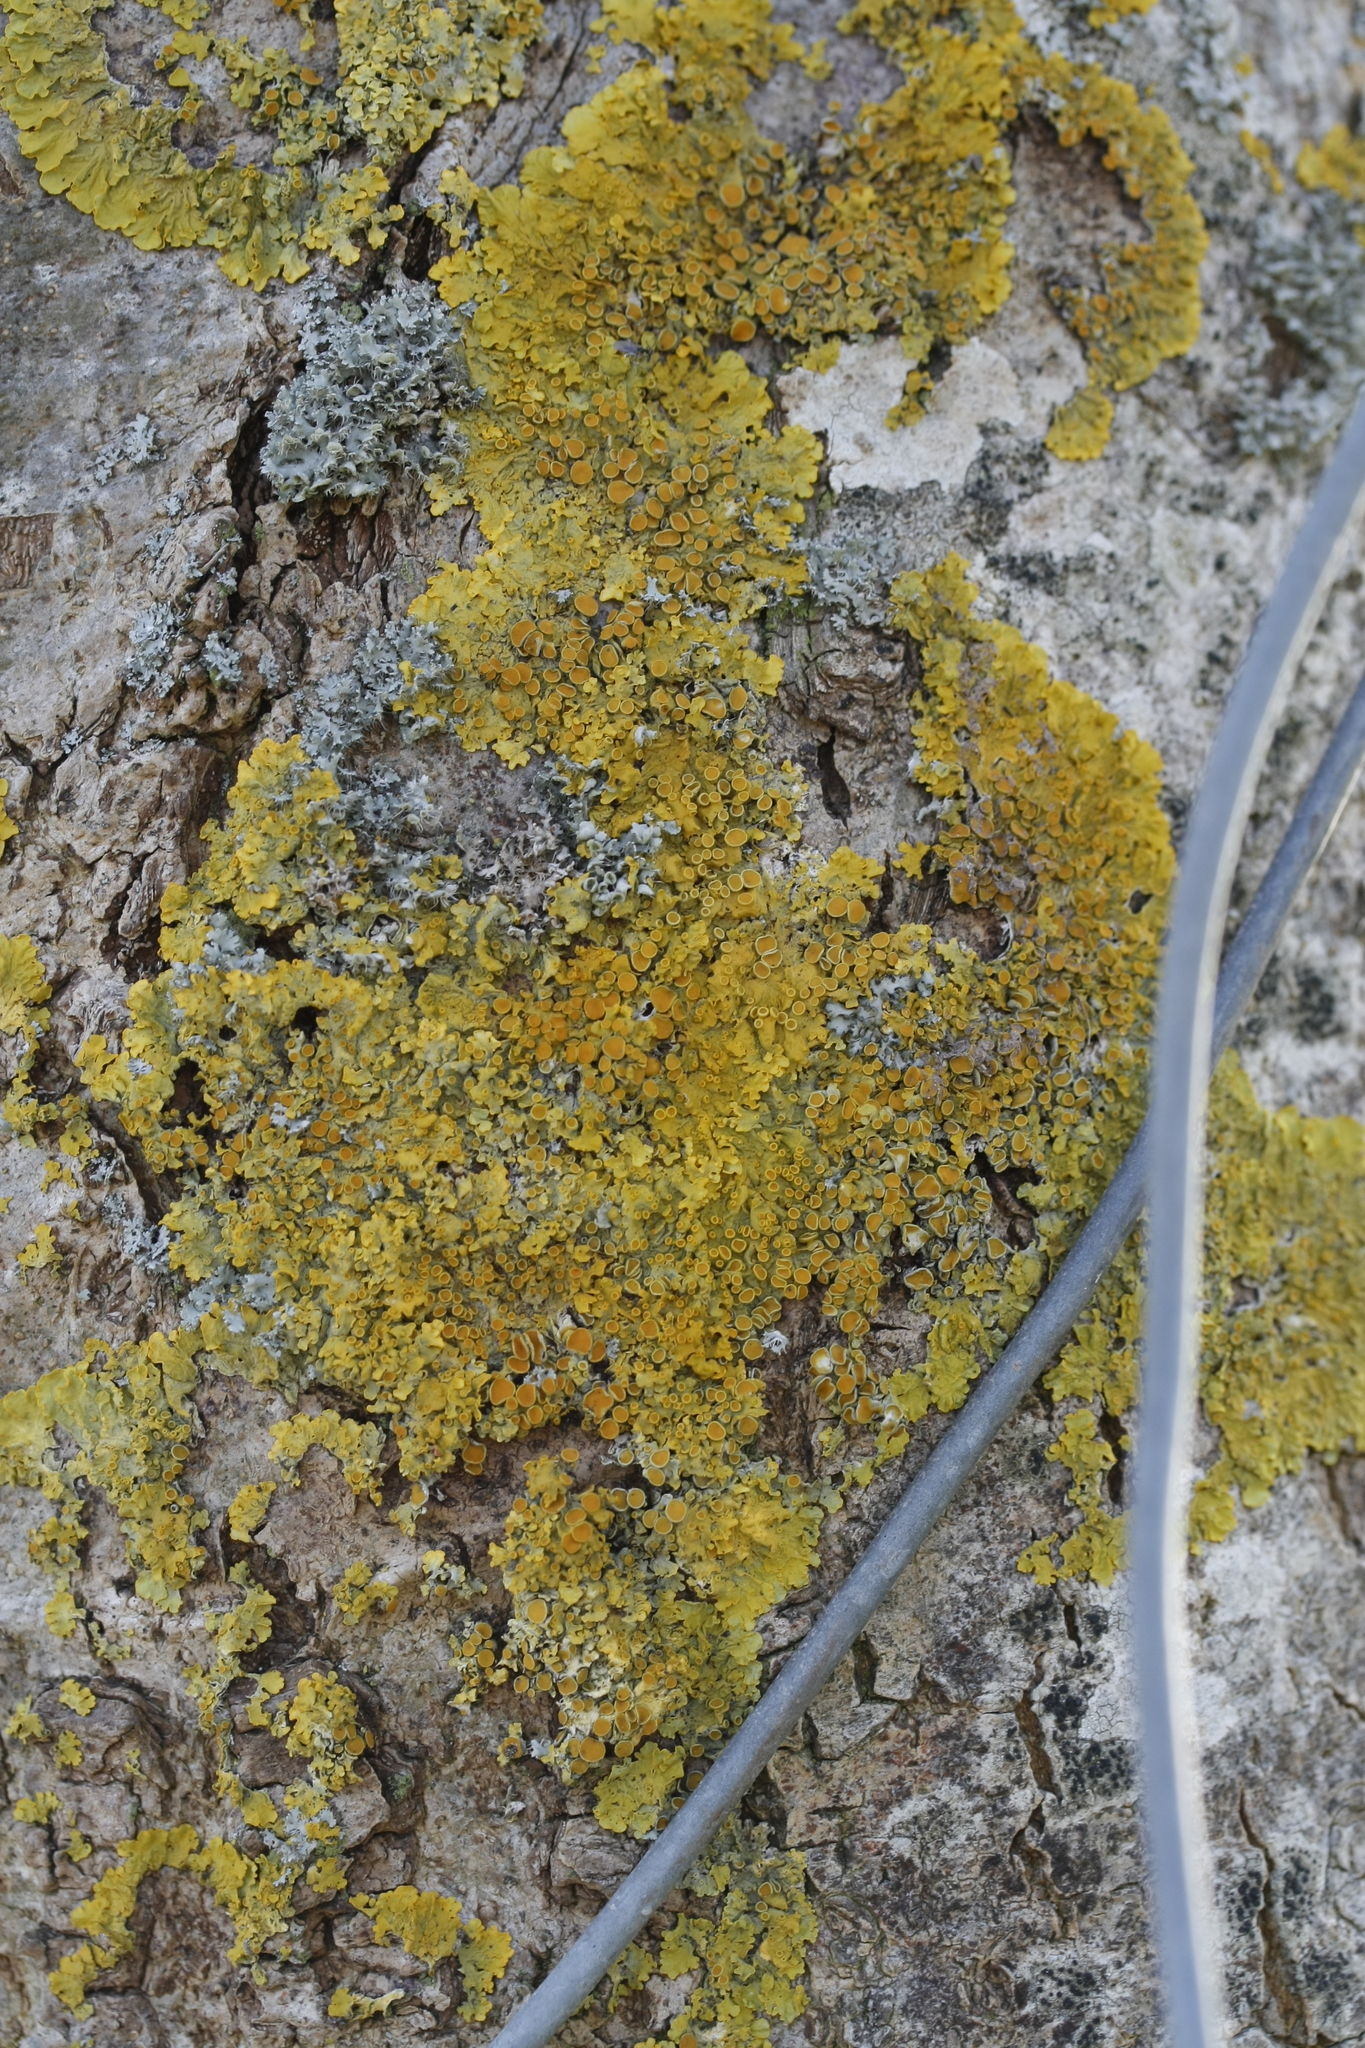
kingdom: Fungi
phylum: Ascomycota
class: Lecanoromycetes
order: Teloschistales
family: Teloschistaceae
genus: Xanthoria
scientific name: Xanthoria parietina
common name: Common orange lichen
